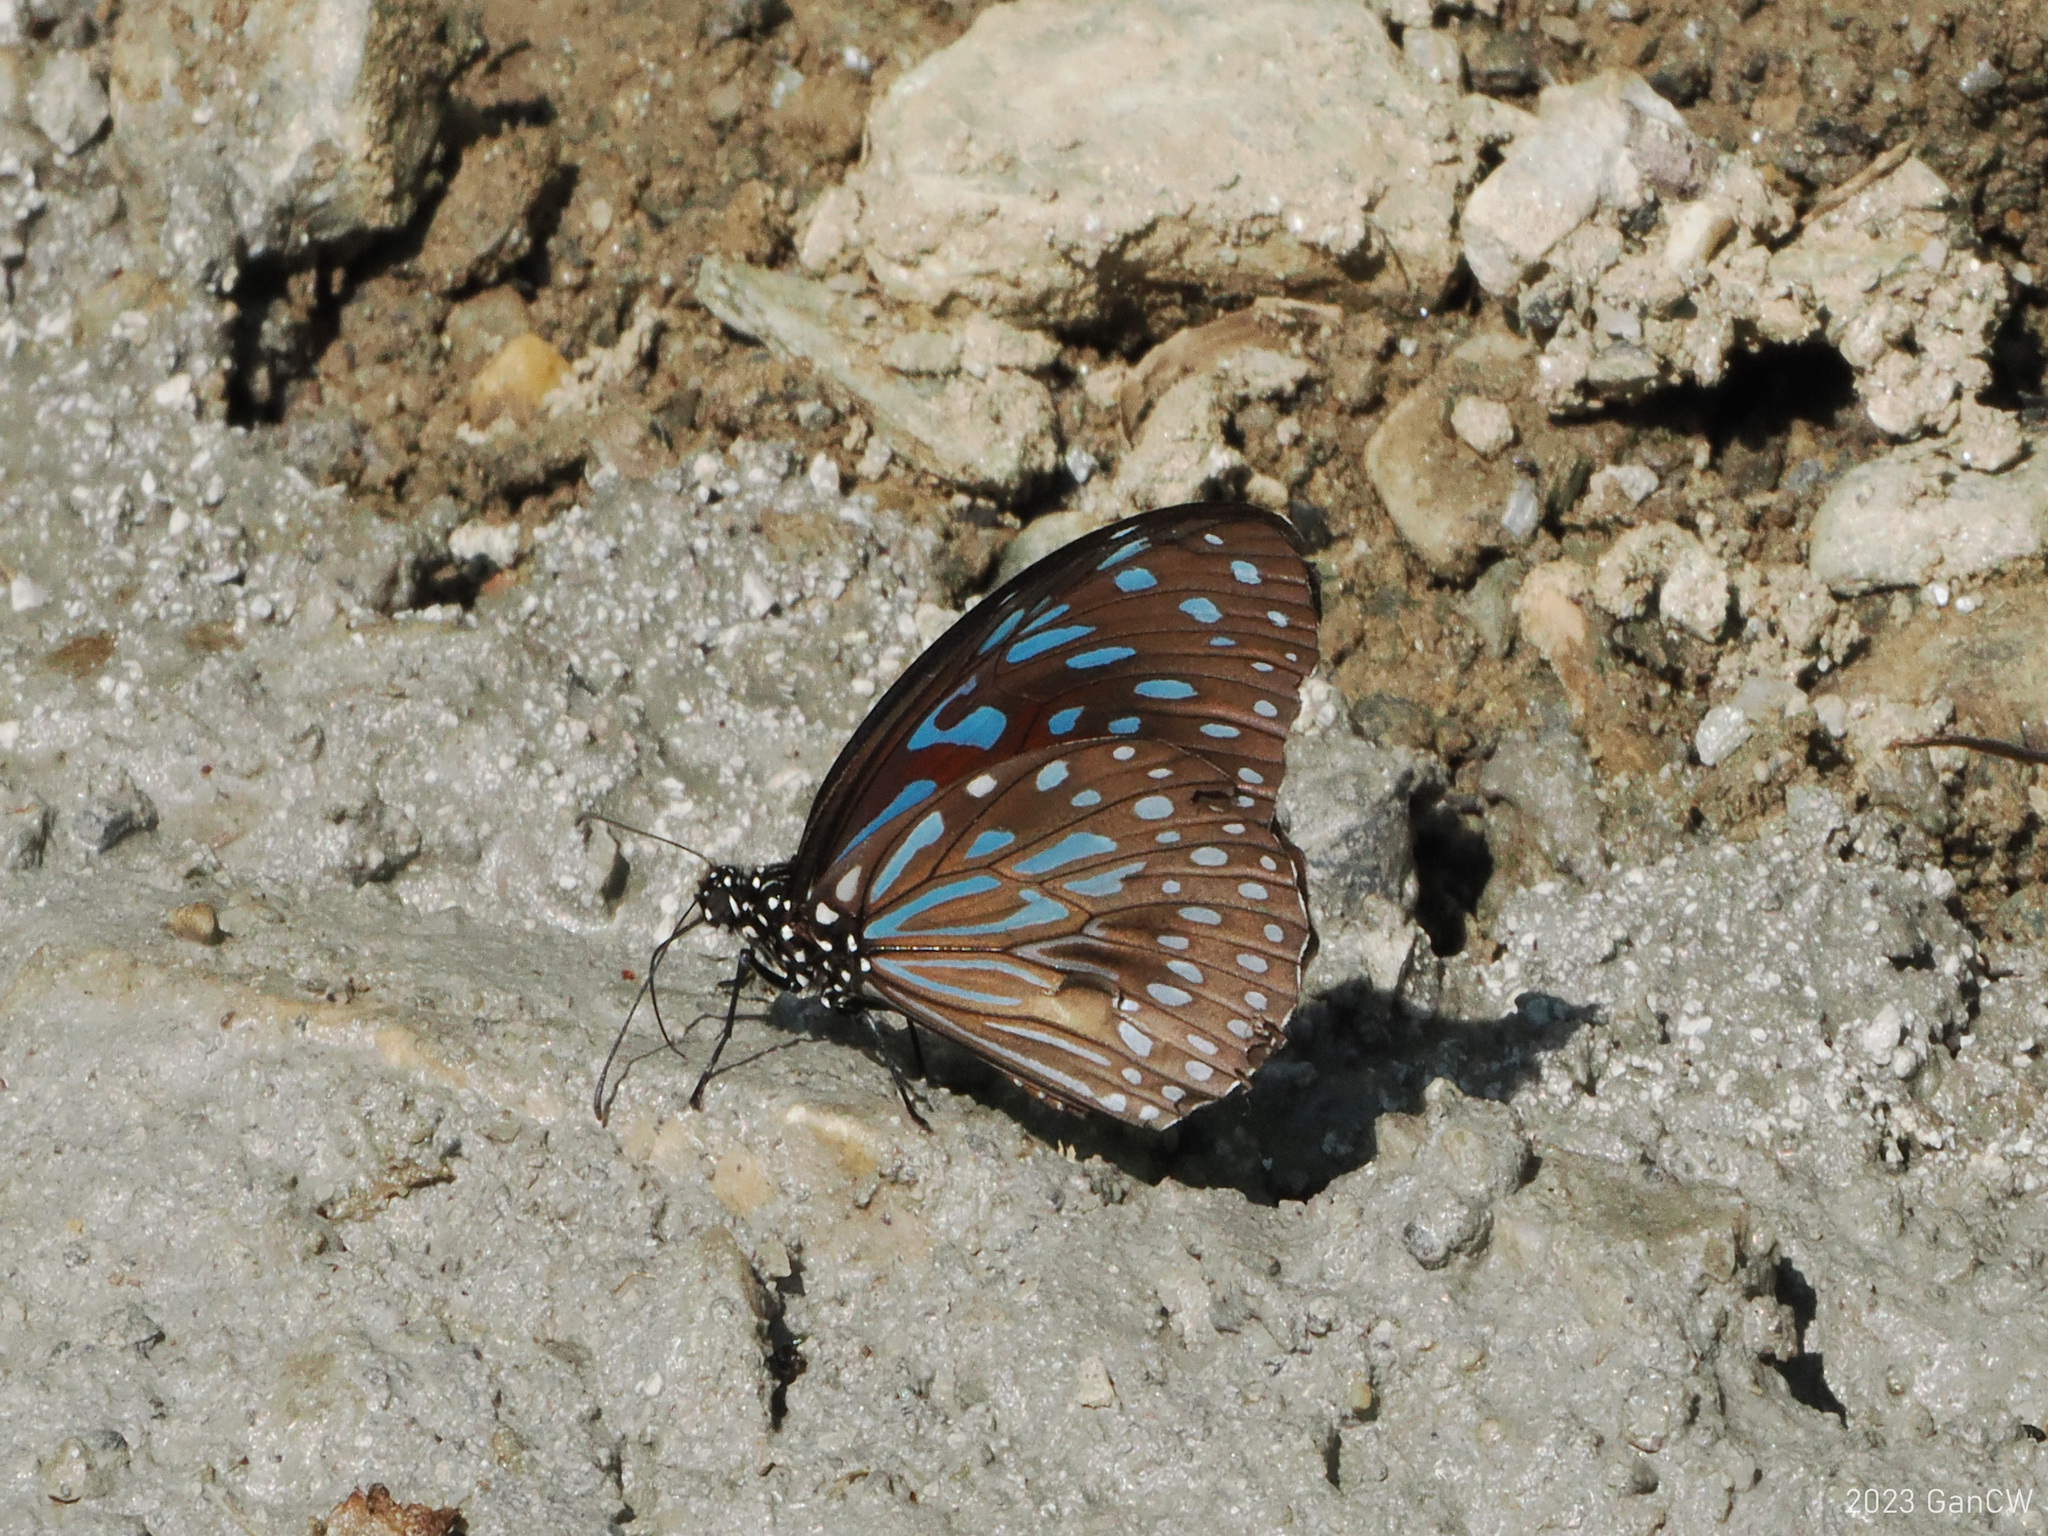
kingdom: Animalia
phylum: Arthropoda
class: Insecta
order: Lepidoptera
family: Nymphalidae
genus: Tirumala
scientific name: Tirumala septentrionis
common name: Dark blue tiger butterfly
